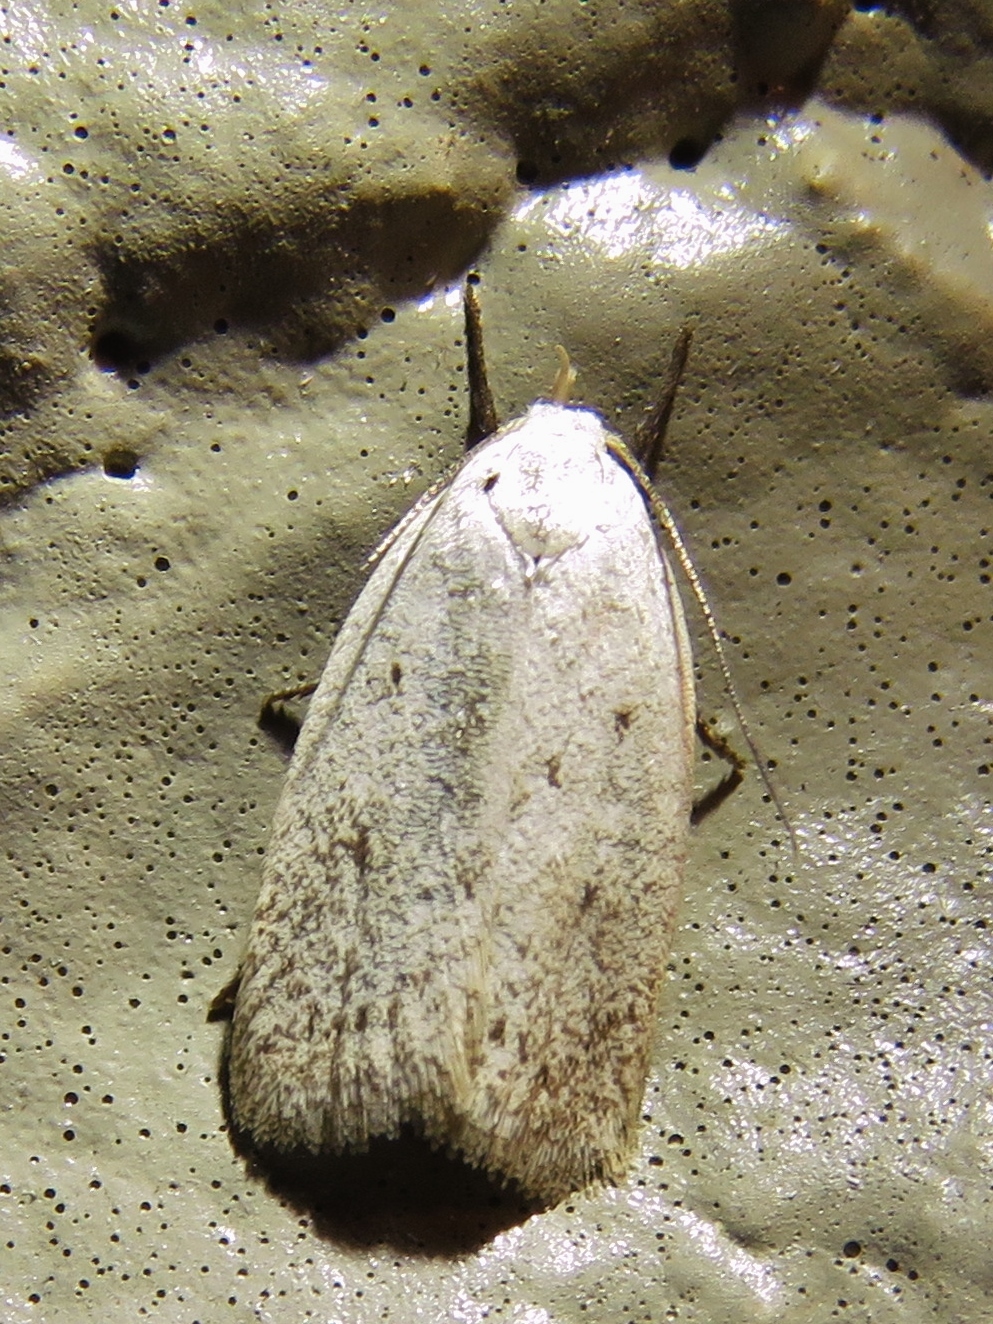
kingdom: Animalia
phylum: Arthropoda
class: Insecta
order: Lepidoptera
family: Oecophoridae
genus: Inga
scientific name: Inga cretacea
